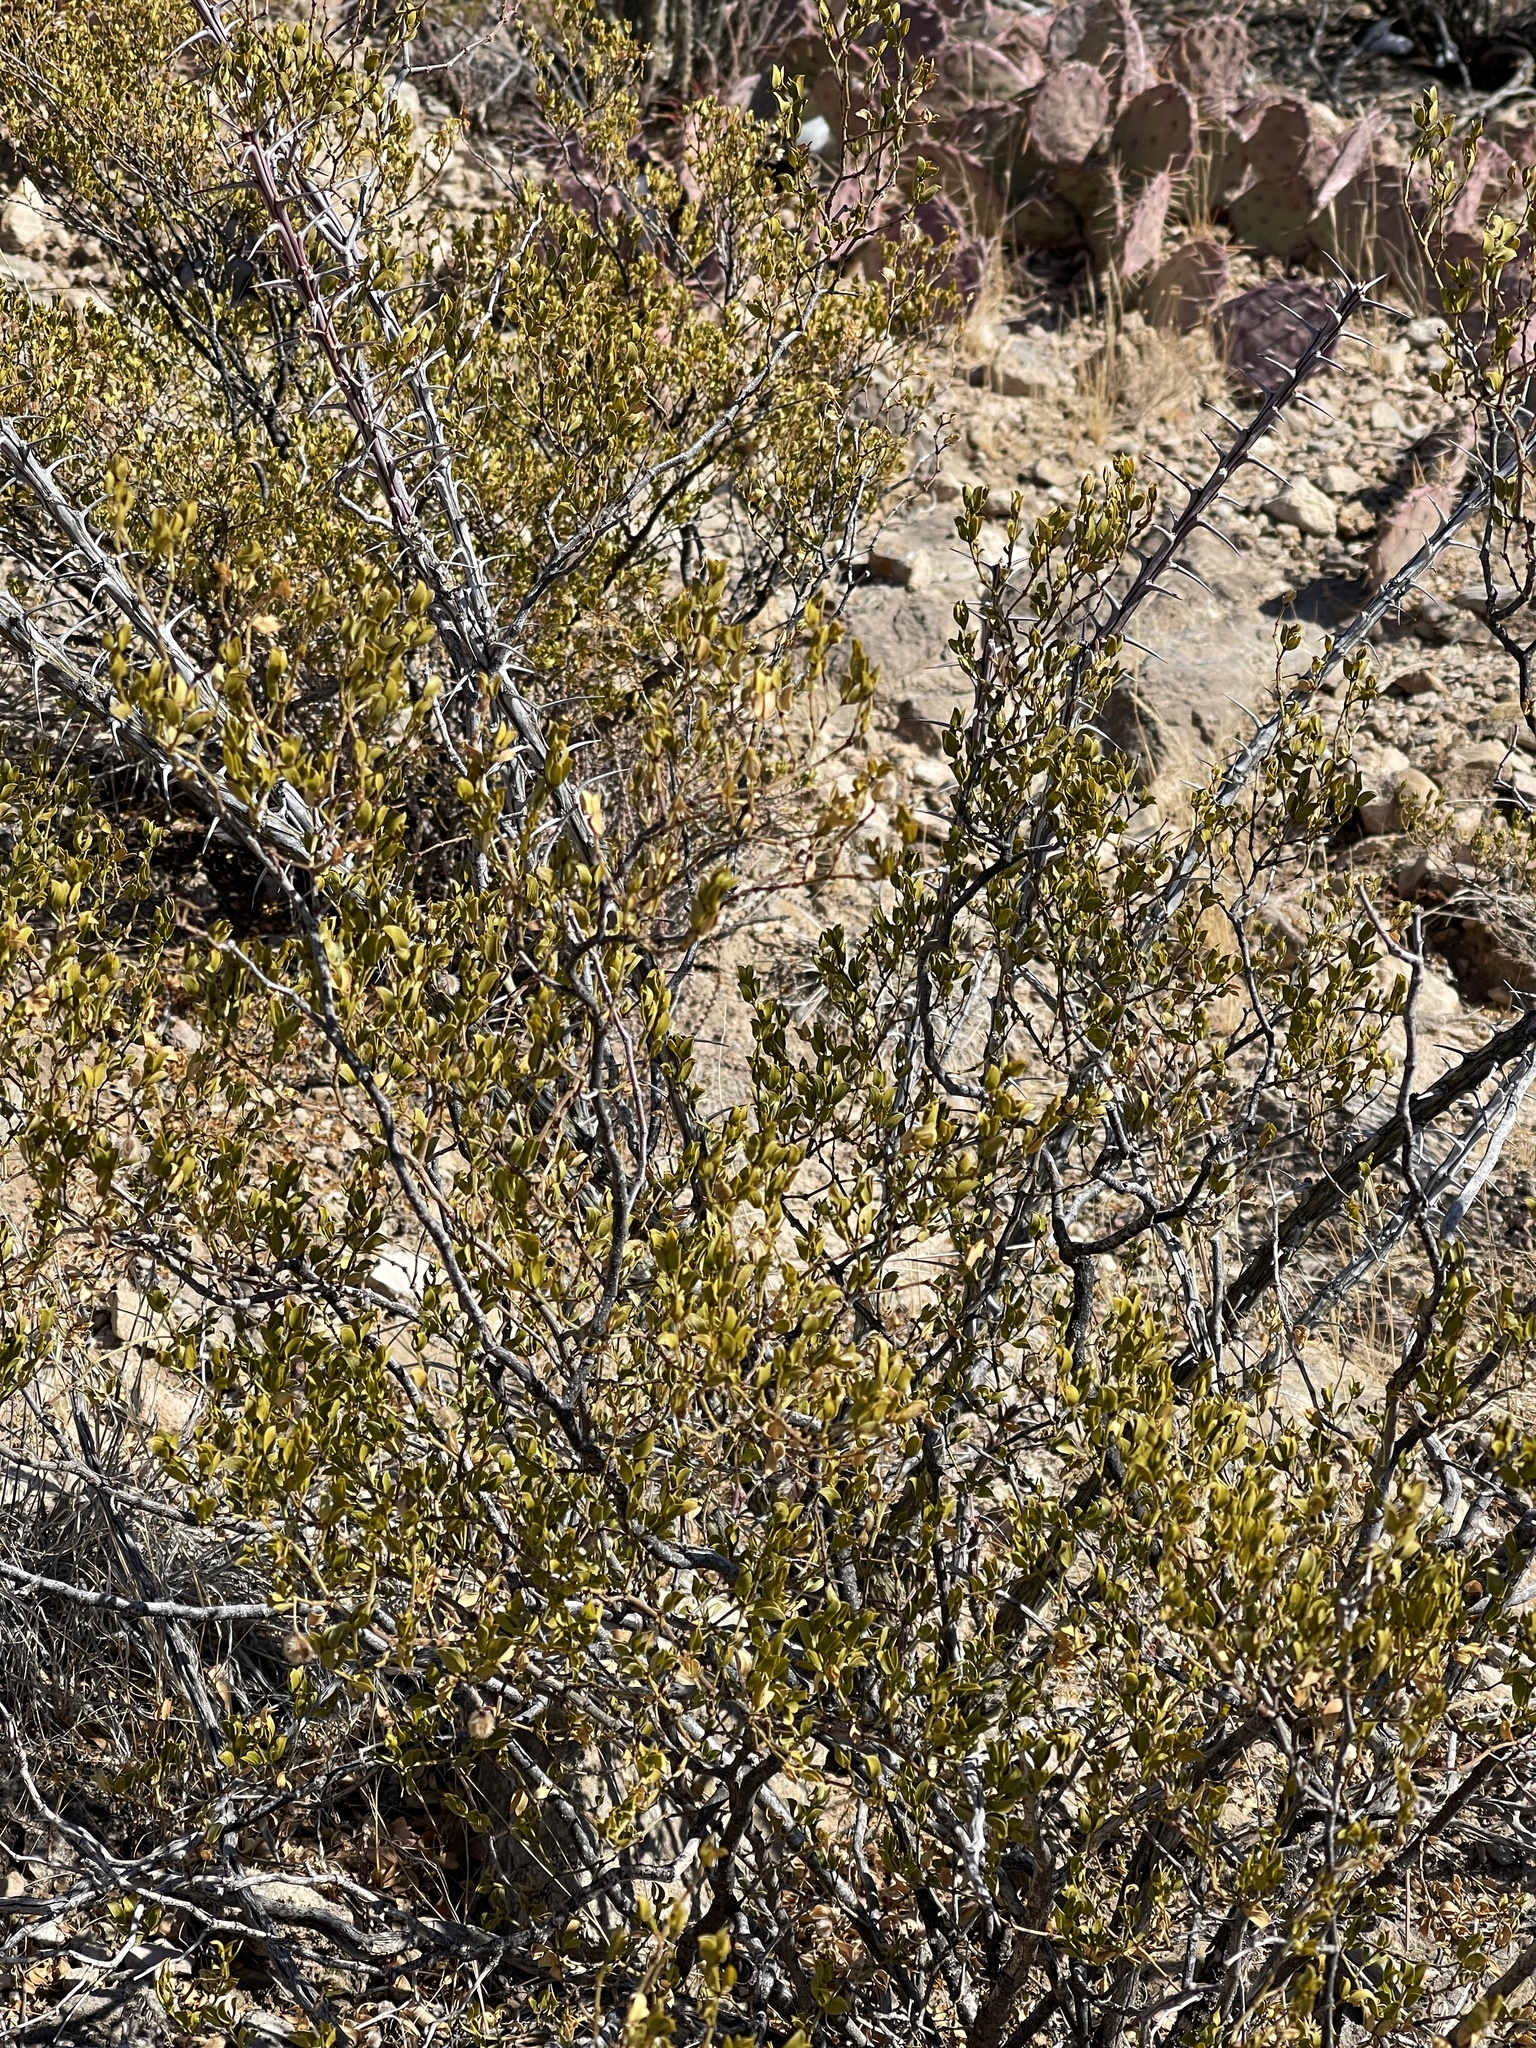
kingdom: Plantae
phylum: Tracheophyta
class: Magnoliopsida
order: Zygophyllales
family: Zygophyllaceae
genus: Larrea
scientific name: Larrea tridentata
